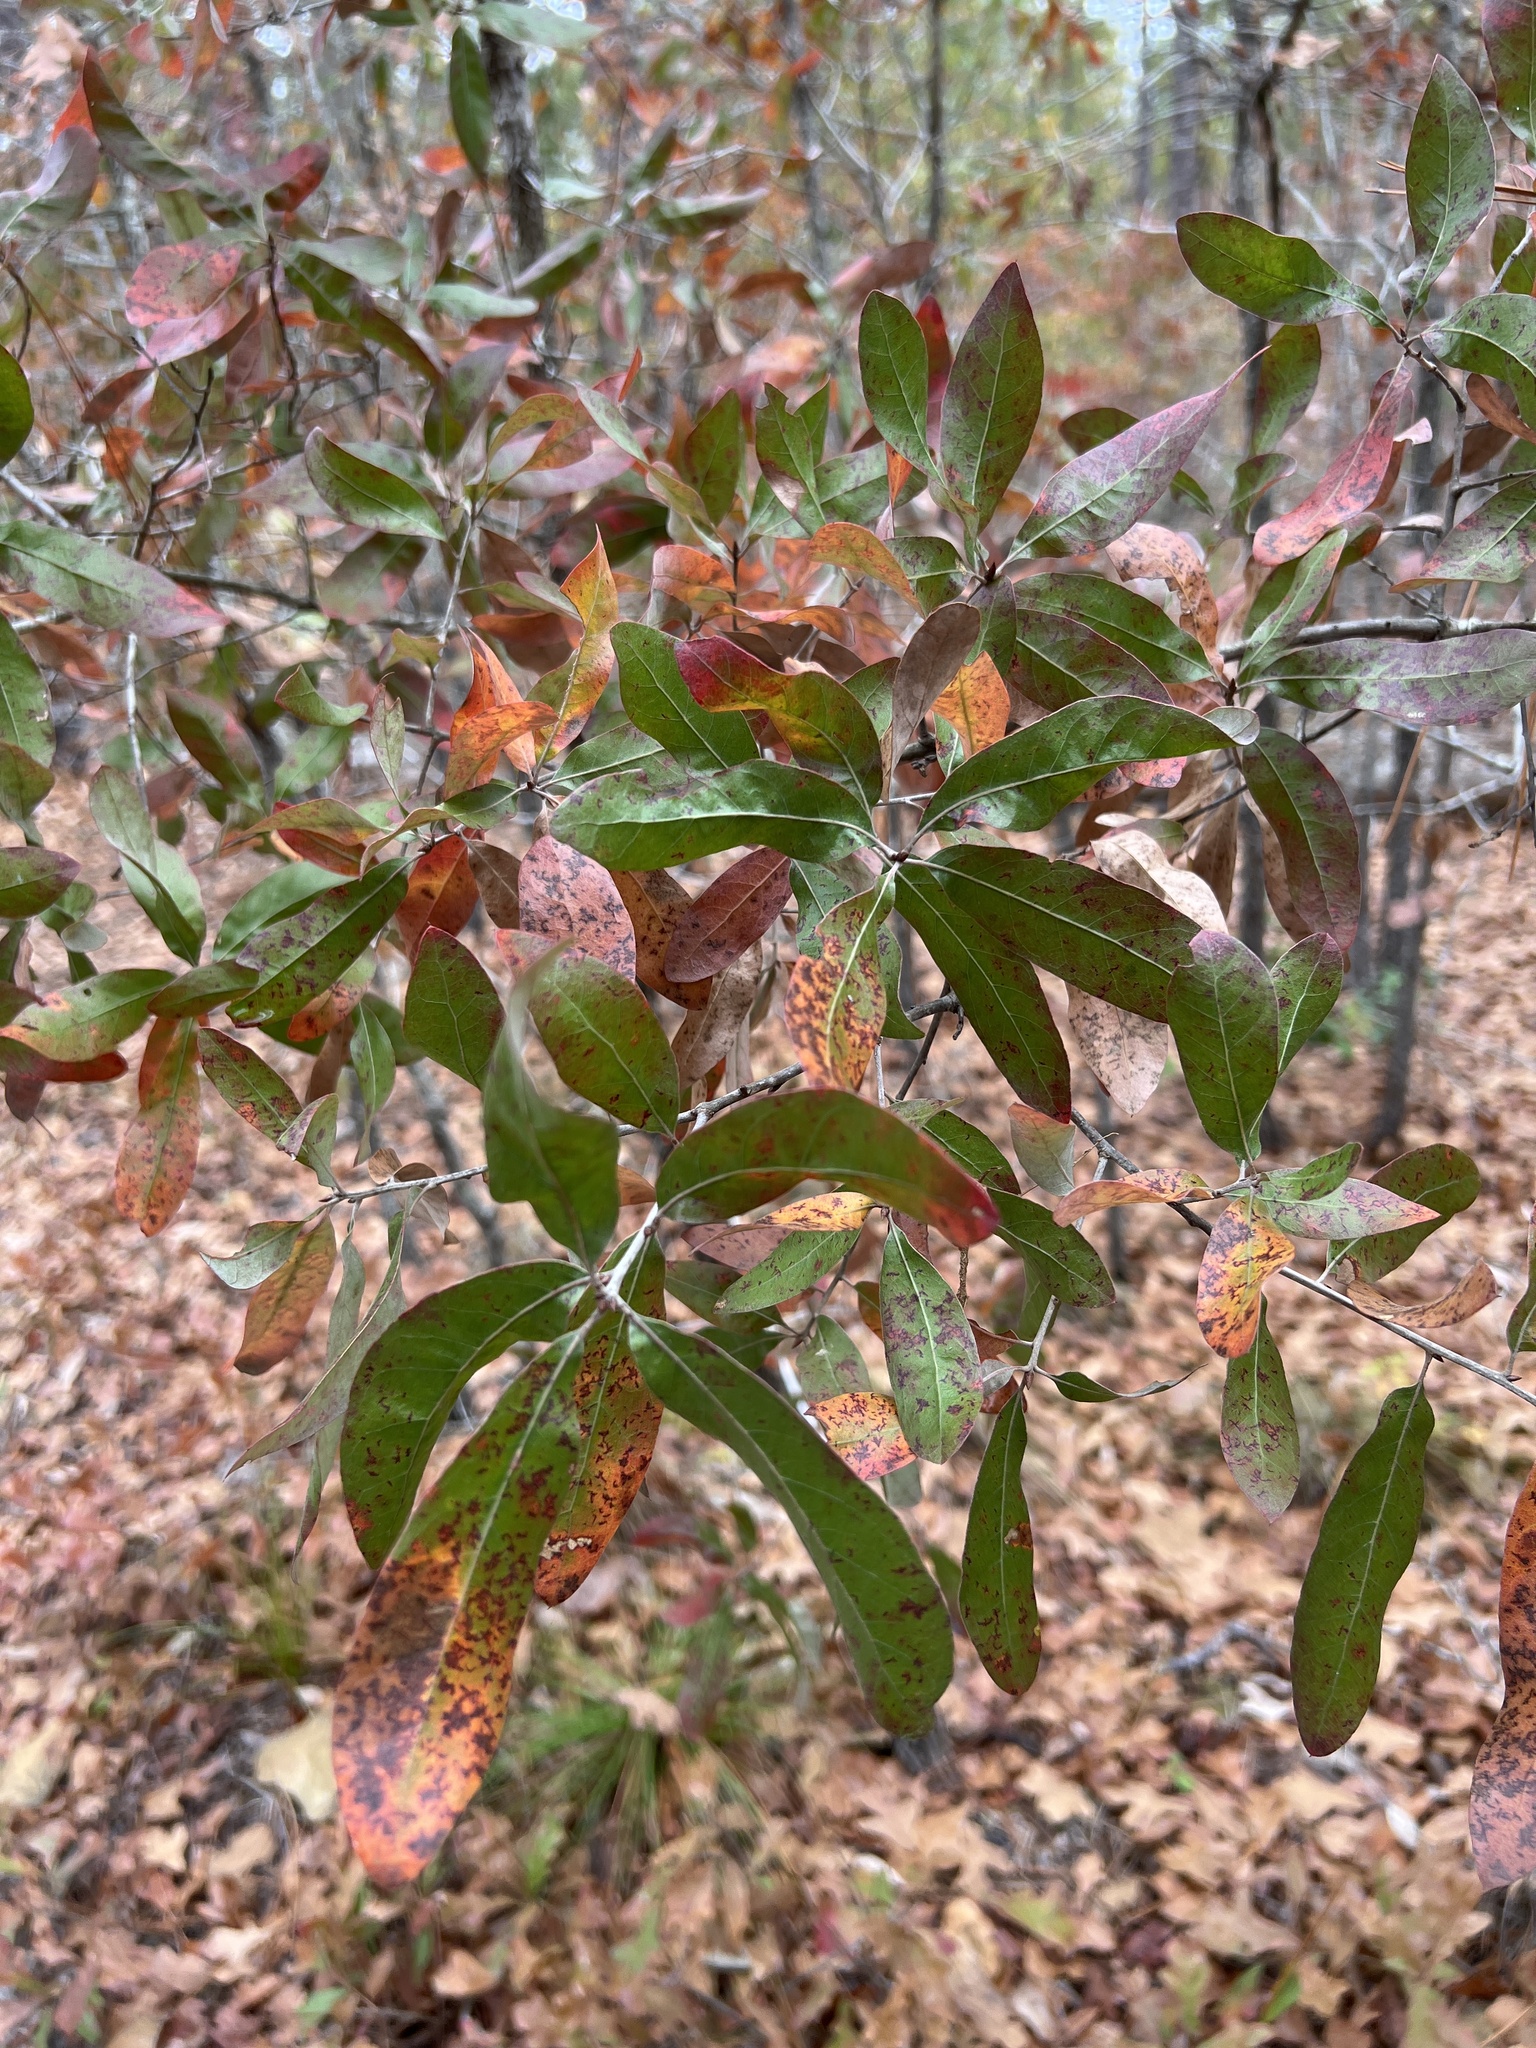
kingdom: Plantae
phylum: Tracheophyta
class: Magnoliopsida
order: Fagales
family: Fagaceae
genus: Quercus
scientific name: Quercus incana
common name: Bluejack oak
